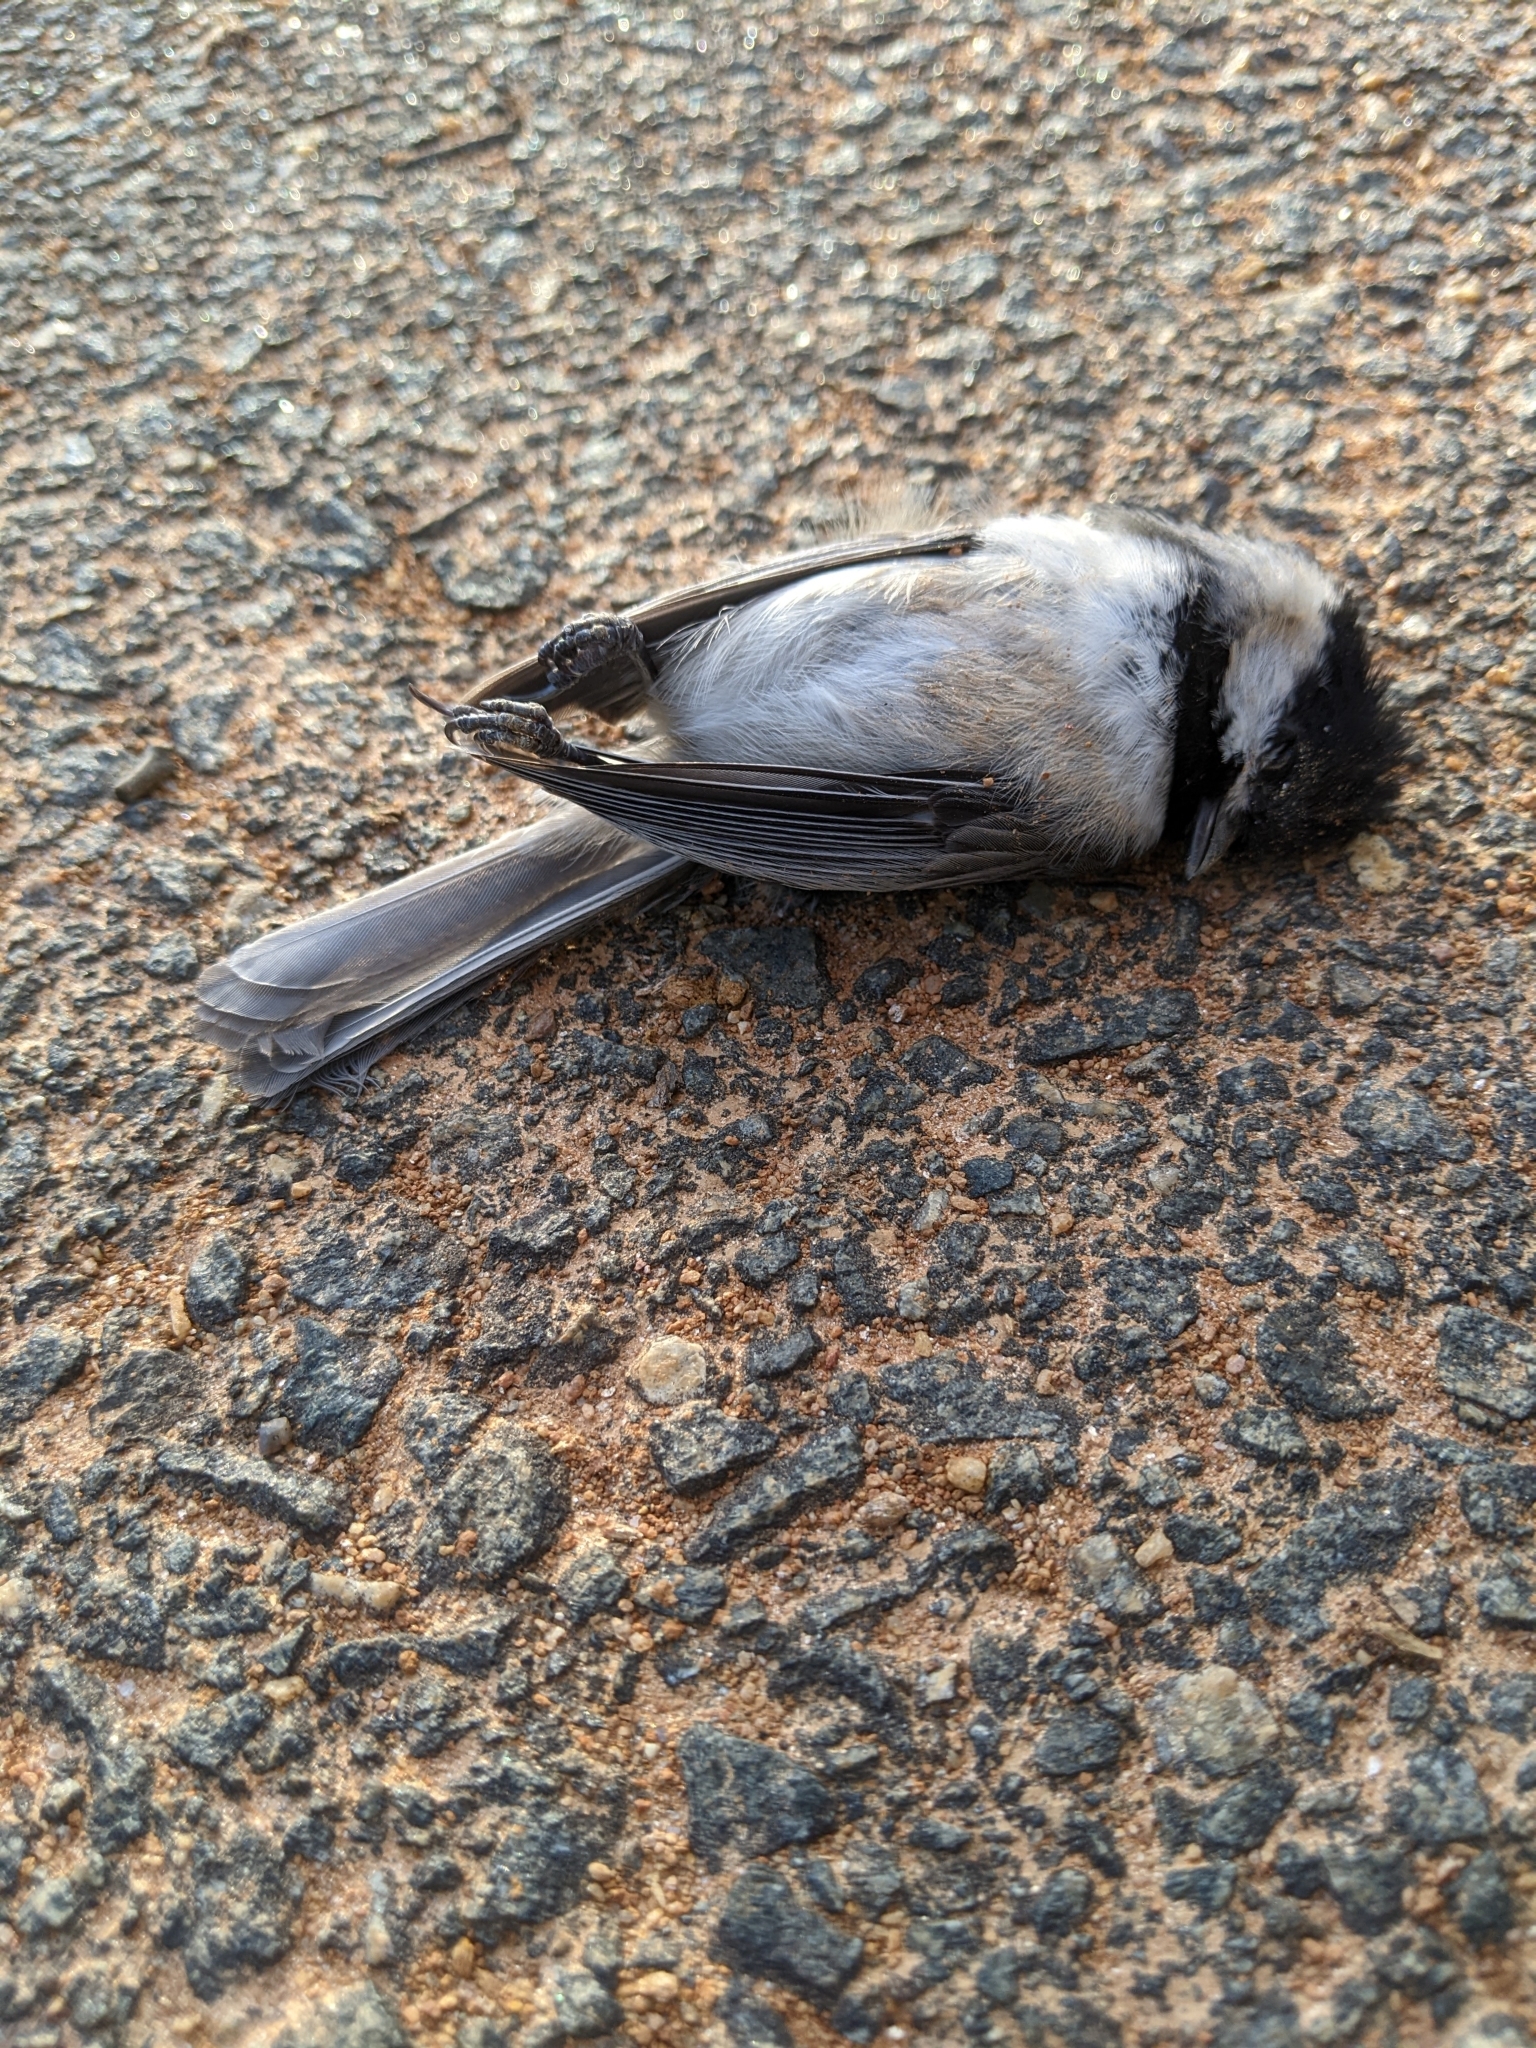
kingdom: Animalia
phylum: Chordata
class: Aves
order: Passeriformes
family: Paridae
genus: Poecile
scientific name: Poecile carolinensis
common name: Carolina chickadee
